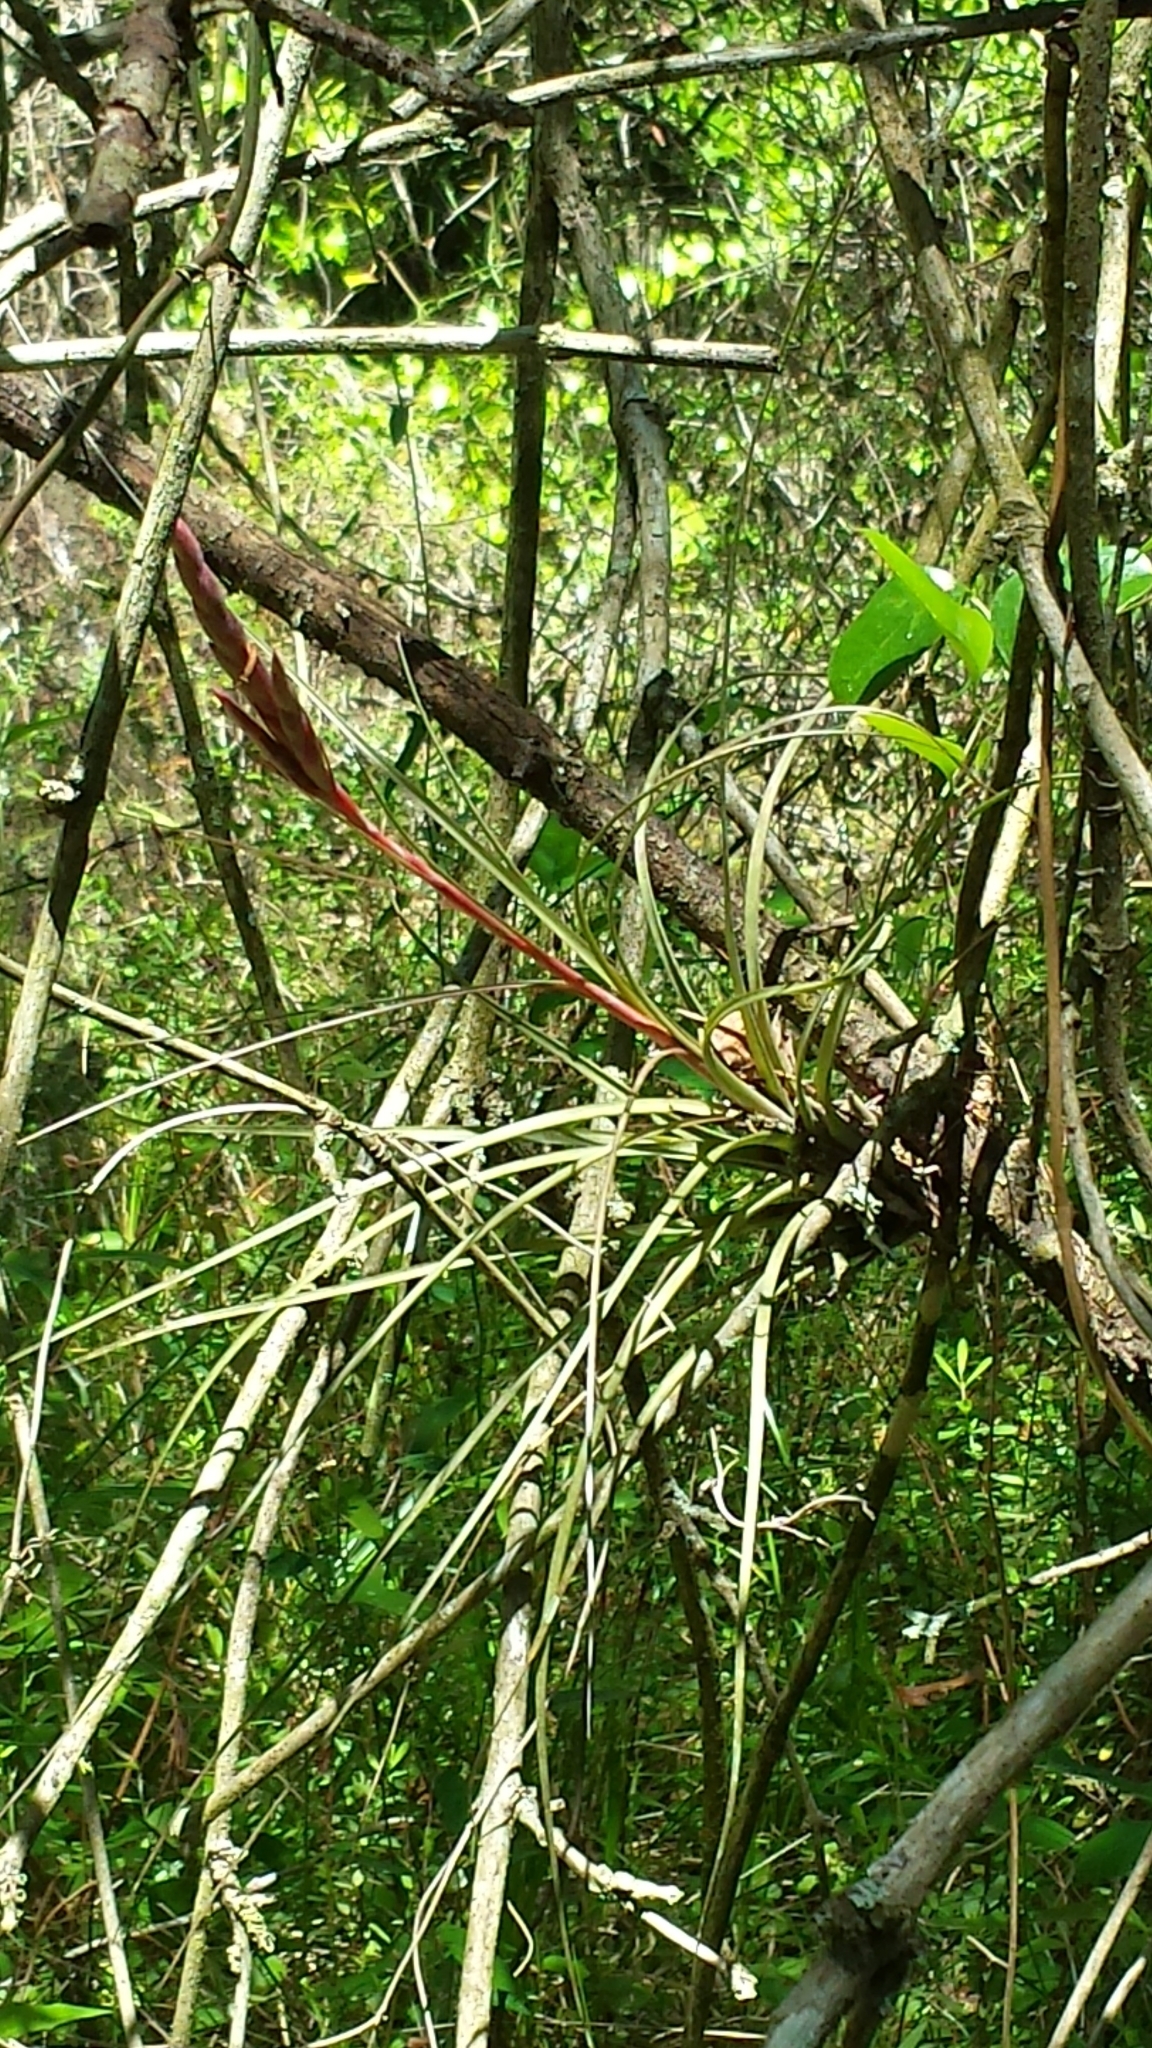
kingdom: Plantae
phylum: Tracheophyta
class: Liliopsida
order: Poales
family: Bromeliaceae
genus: Tillandsia
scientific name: Tillandsia balbisiana
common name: Northern needleleaf
